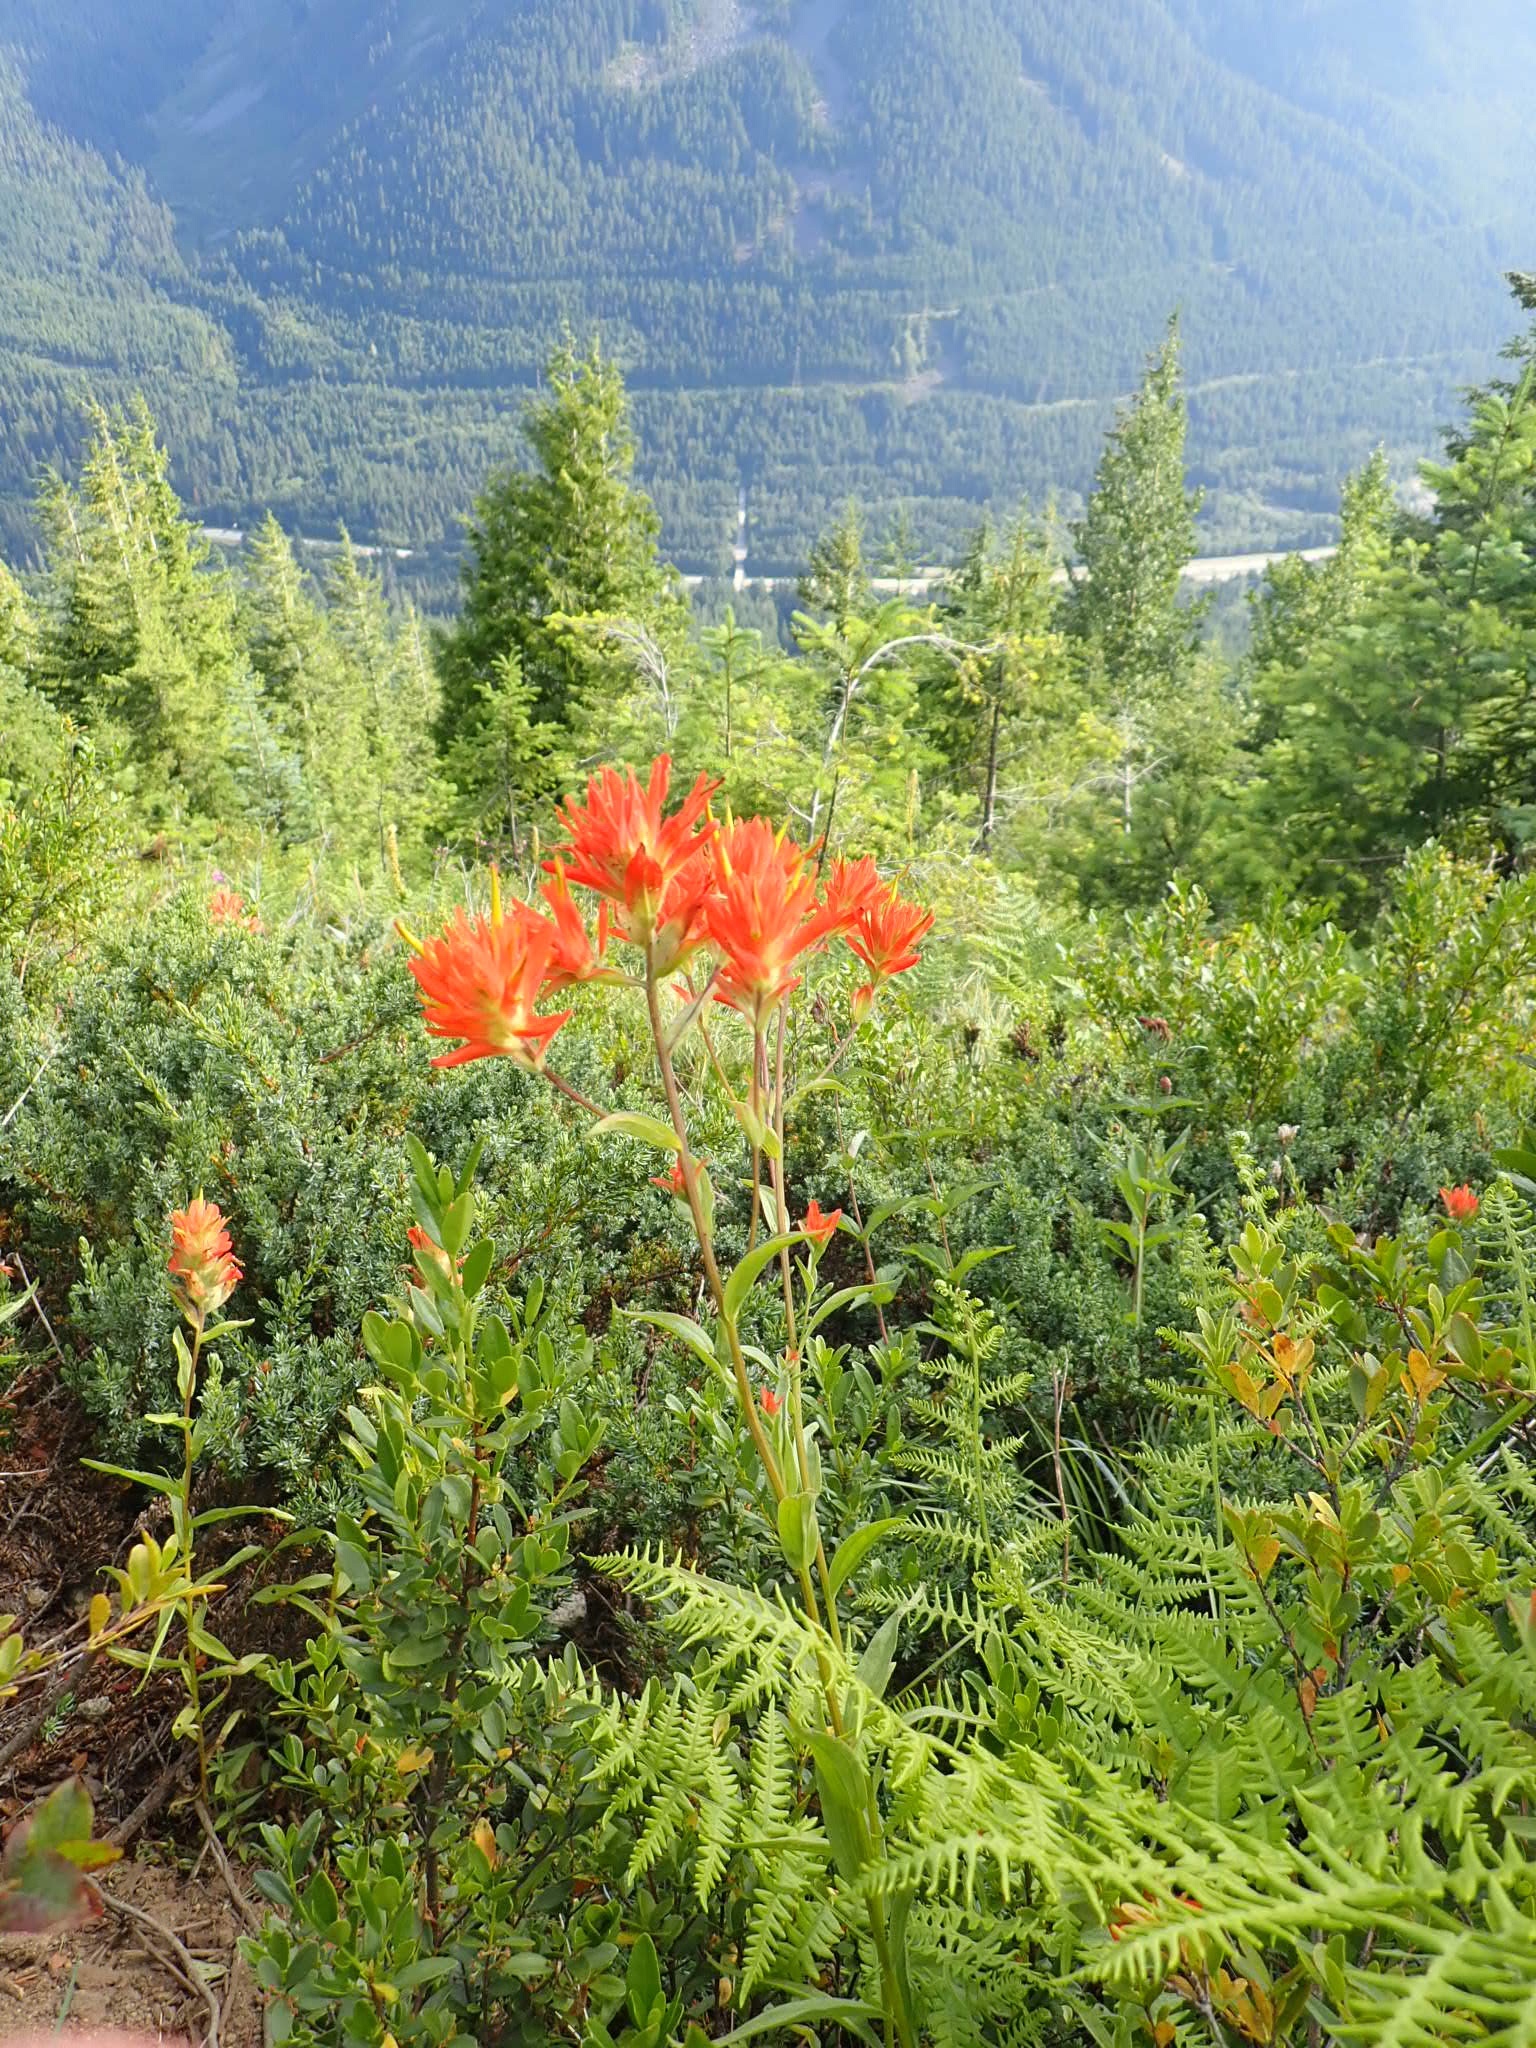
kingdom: Plantae
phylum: Tracheophyta
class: Magnoliopsida
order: Lamiales
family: Orobanchaceae
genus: Castilleja
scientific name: Castilleja miniata
